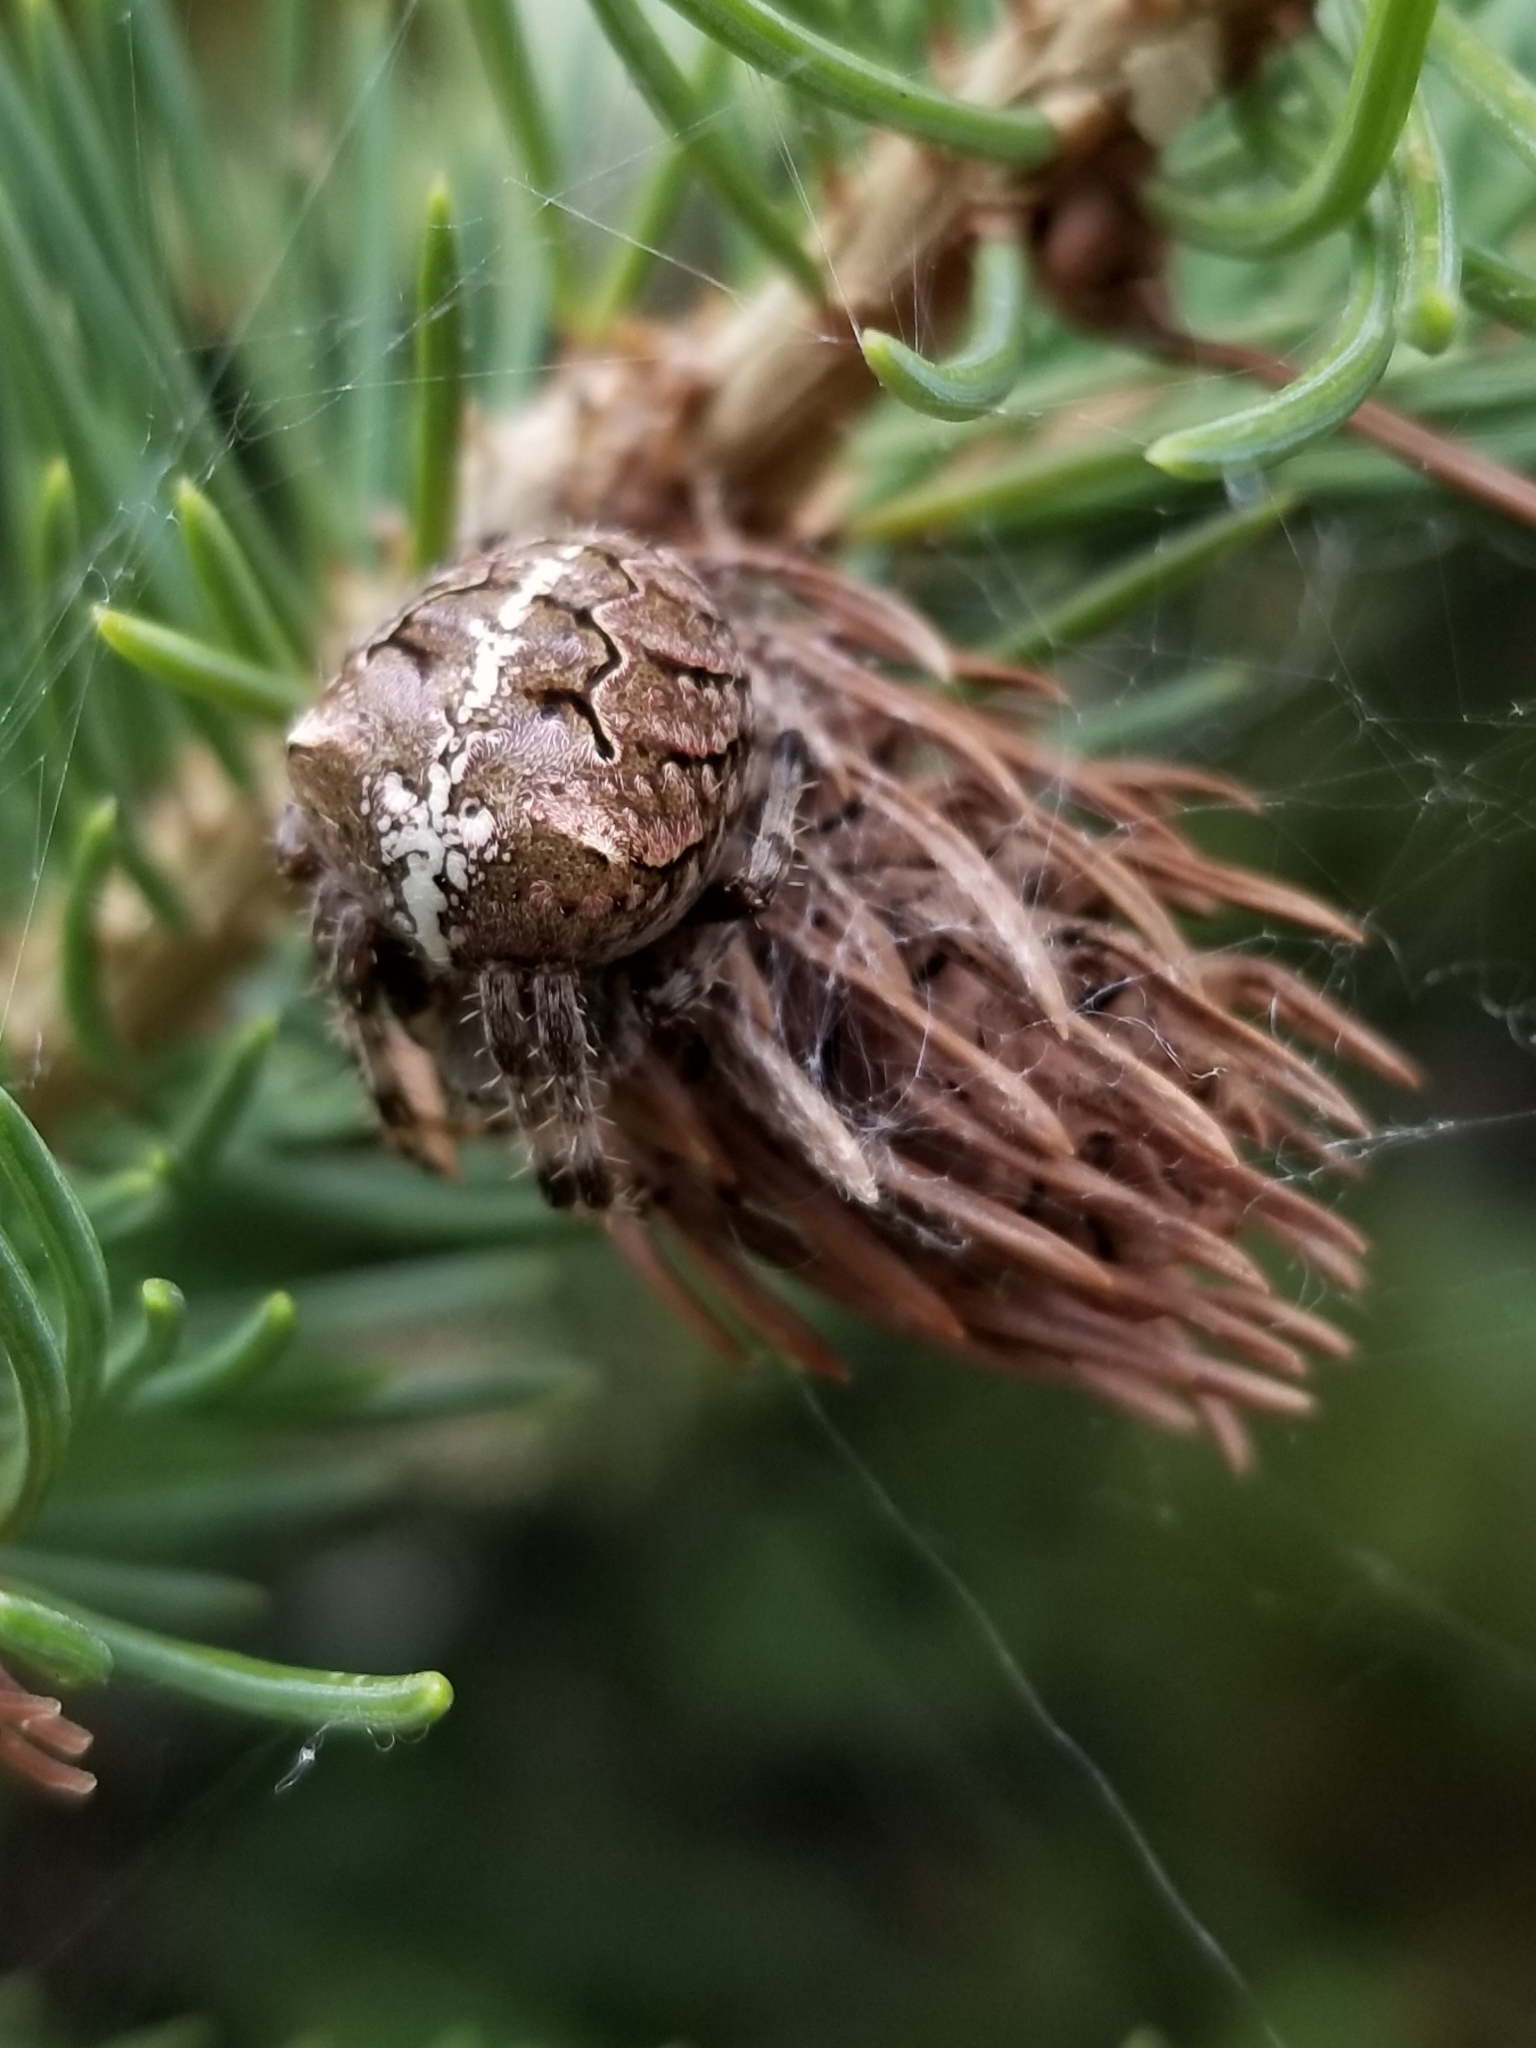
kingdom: Animalia
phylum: Arthropoda
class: Arachnida
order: Araneae
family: Araneidae
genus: Araneus
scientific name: Araneus gemma
